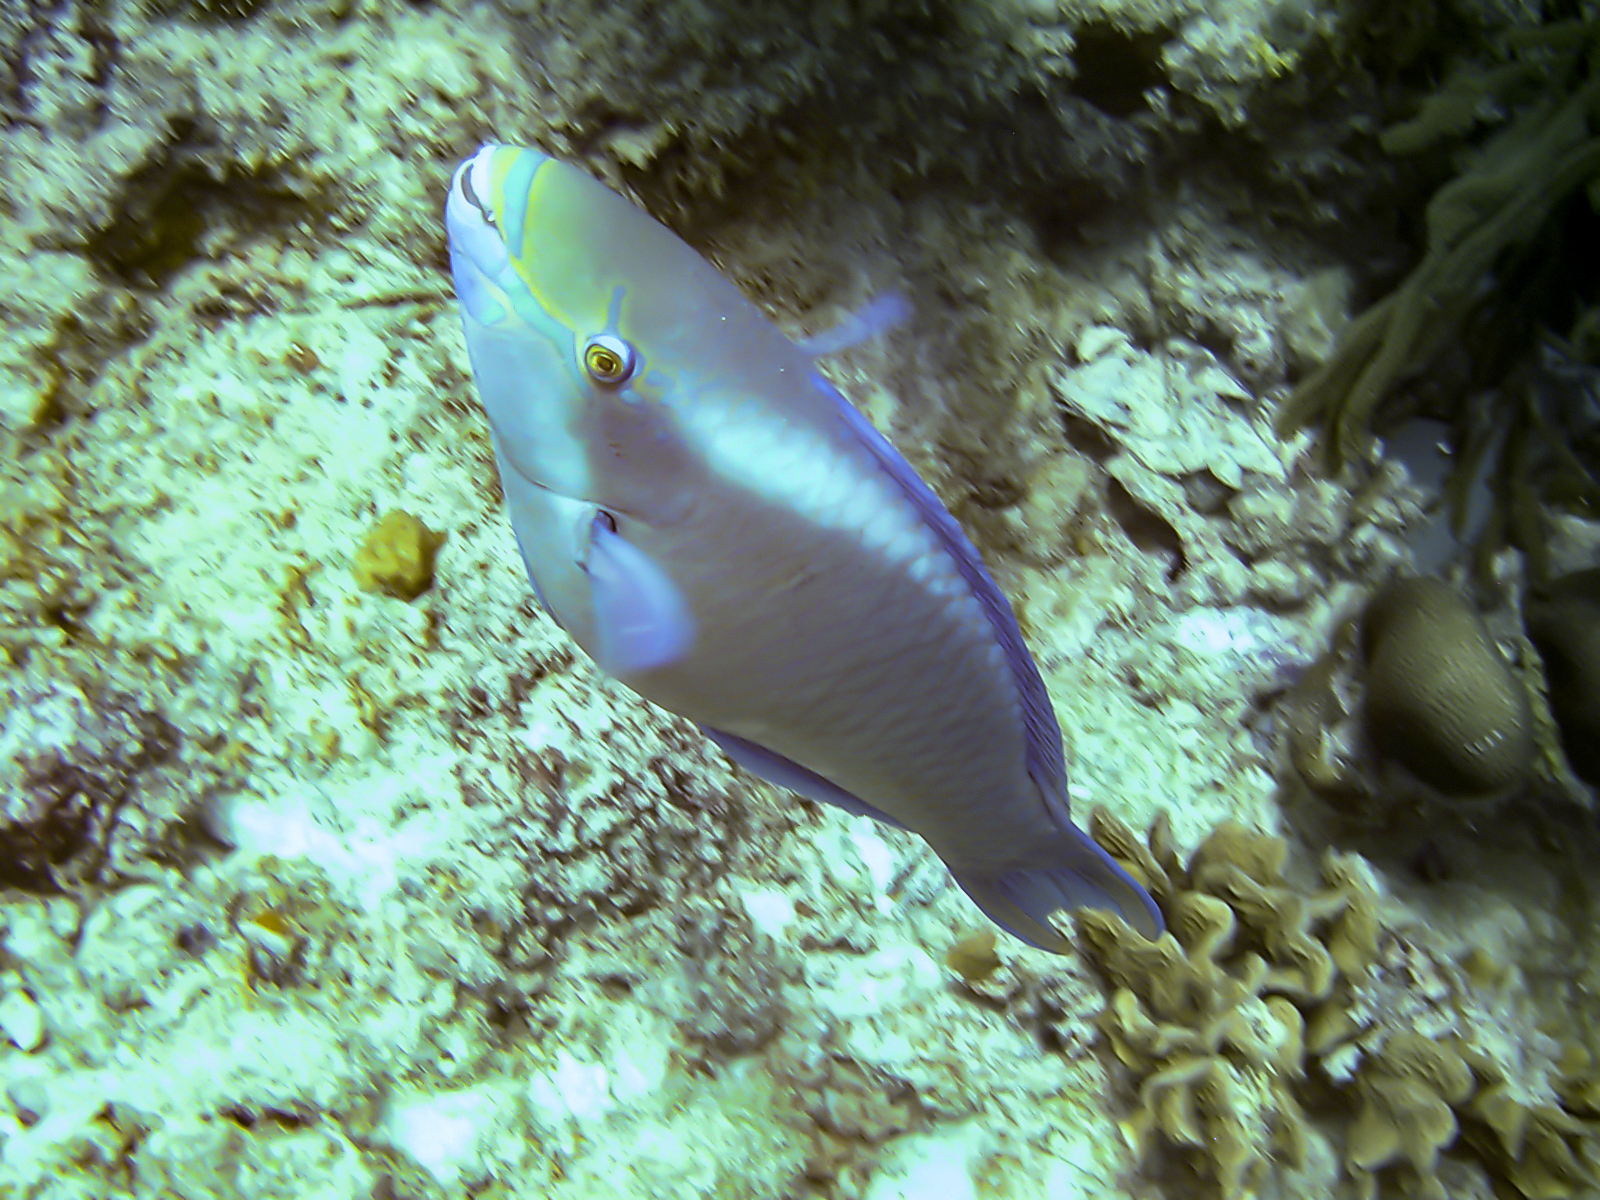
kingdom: Animalia
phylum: Chordata
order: Perciformes
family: Scaridae
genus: Scarus
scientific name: Scarus vetula
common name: Queen parrotfish
